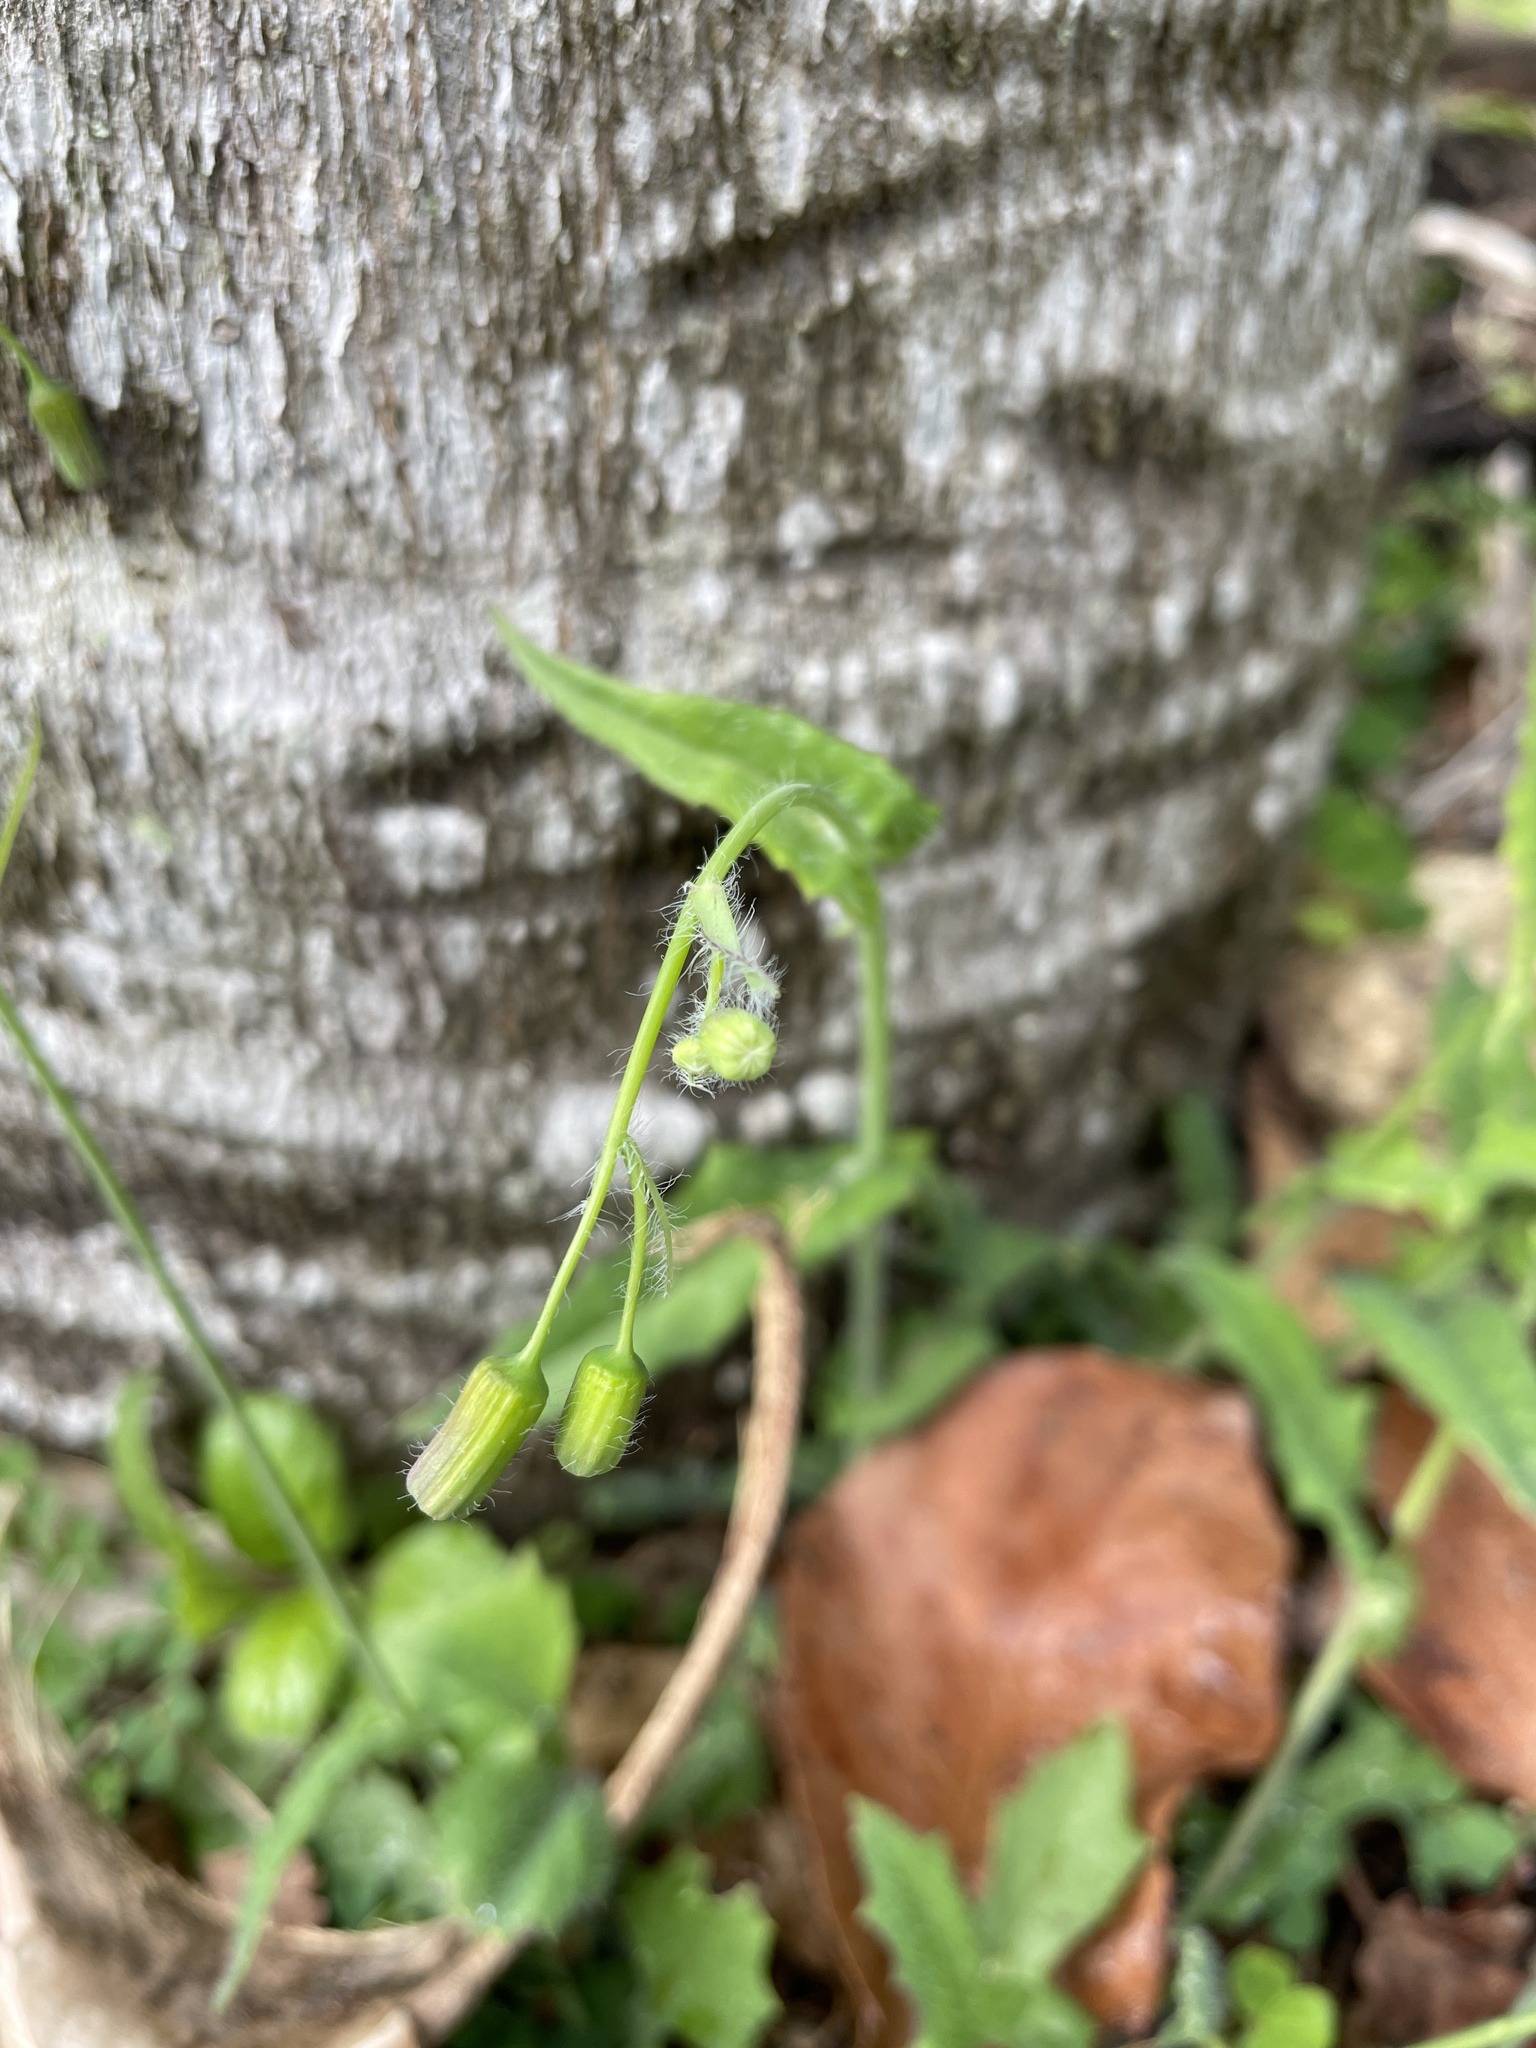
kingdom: Plantae
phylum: Tracheophyta
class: Magnoliopsida
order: Asterales
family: Asteraceae
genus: Emilia
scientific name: Emilia sonchifolia
